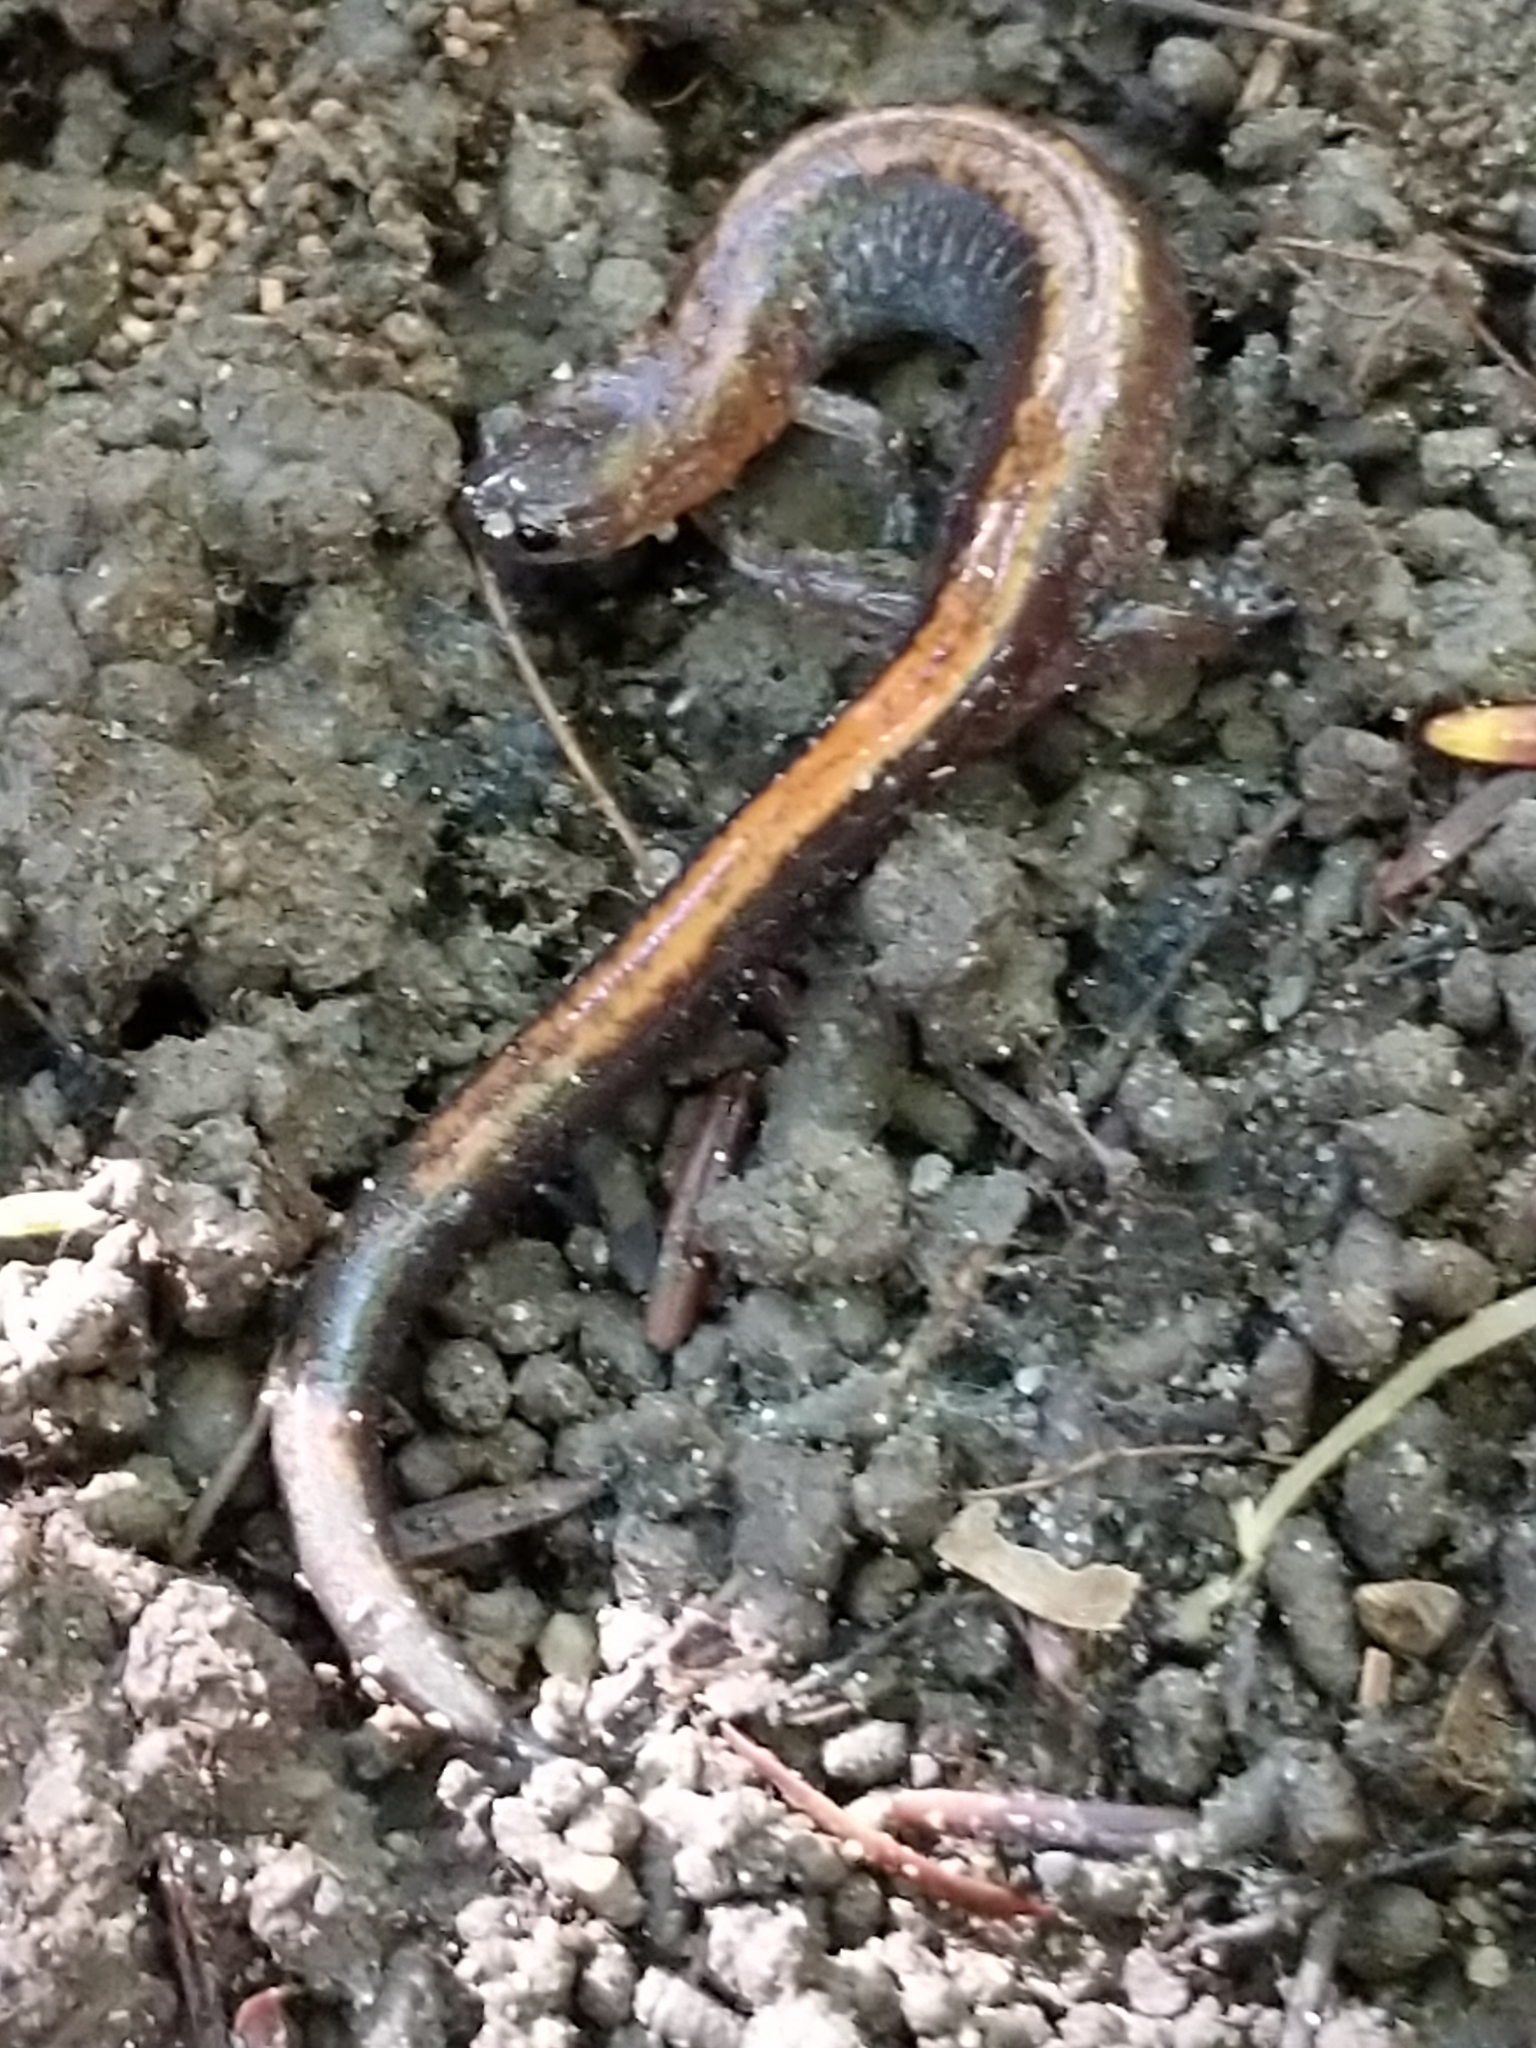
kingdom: Animalia
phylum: Chordata
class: Amphibia
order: Caudata
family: Plethodontidae
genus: Plethodon
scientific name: Plethodon cinereus
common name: Redback salamander
